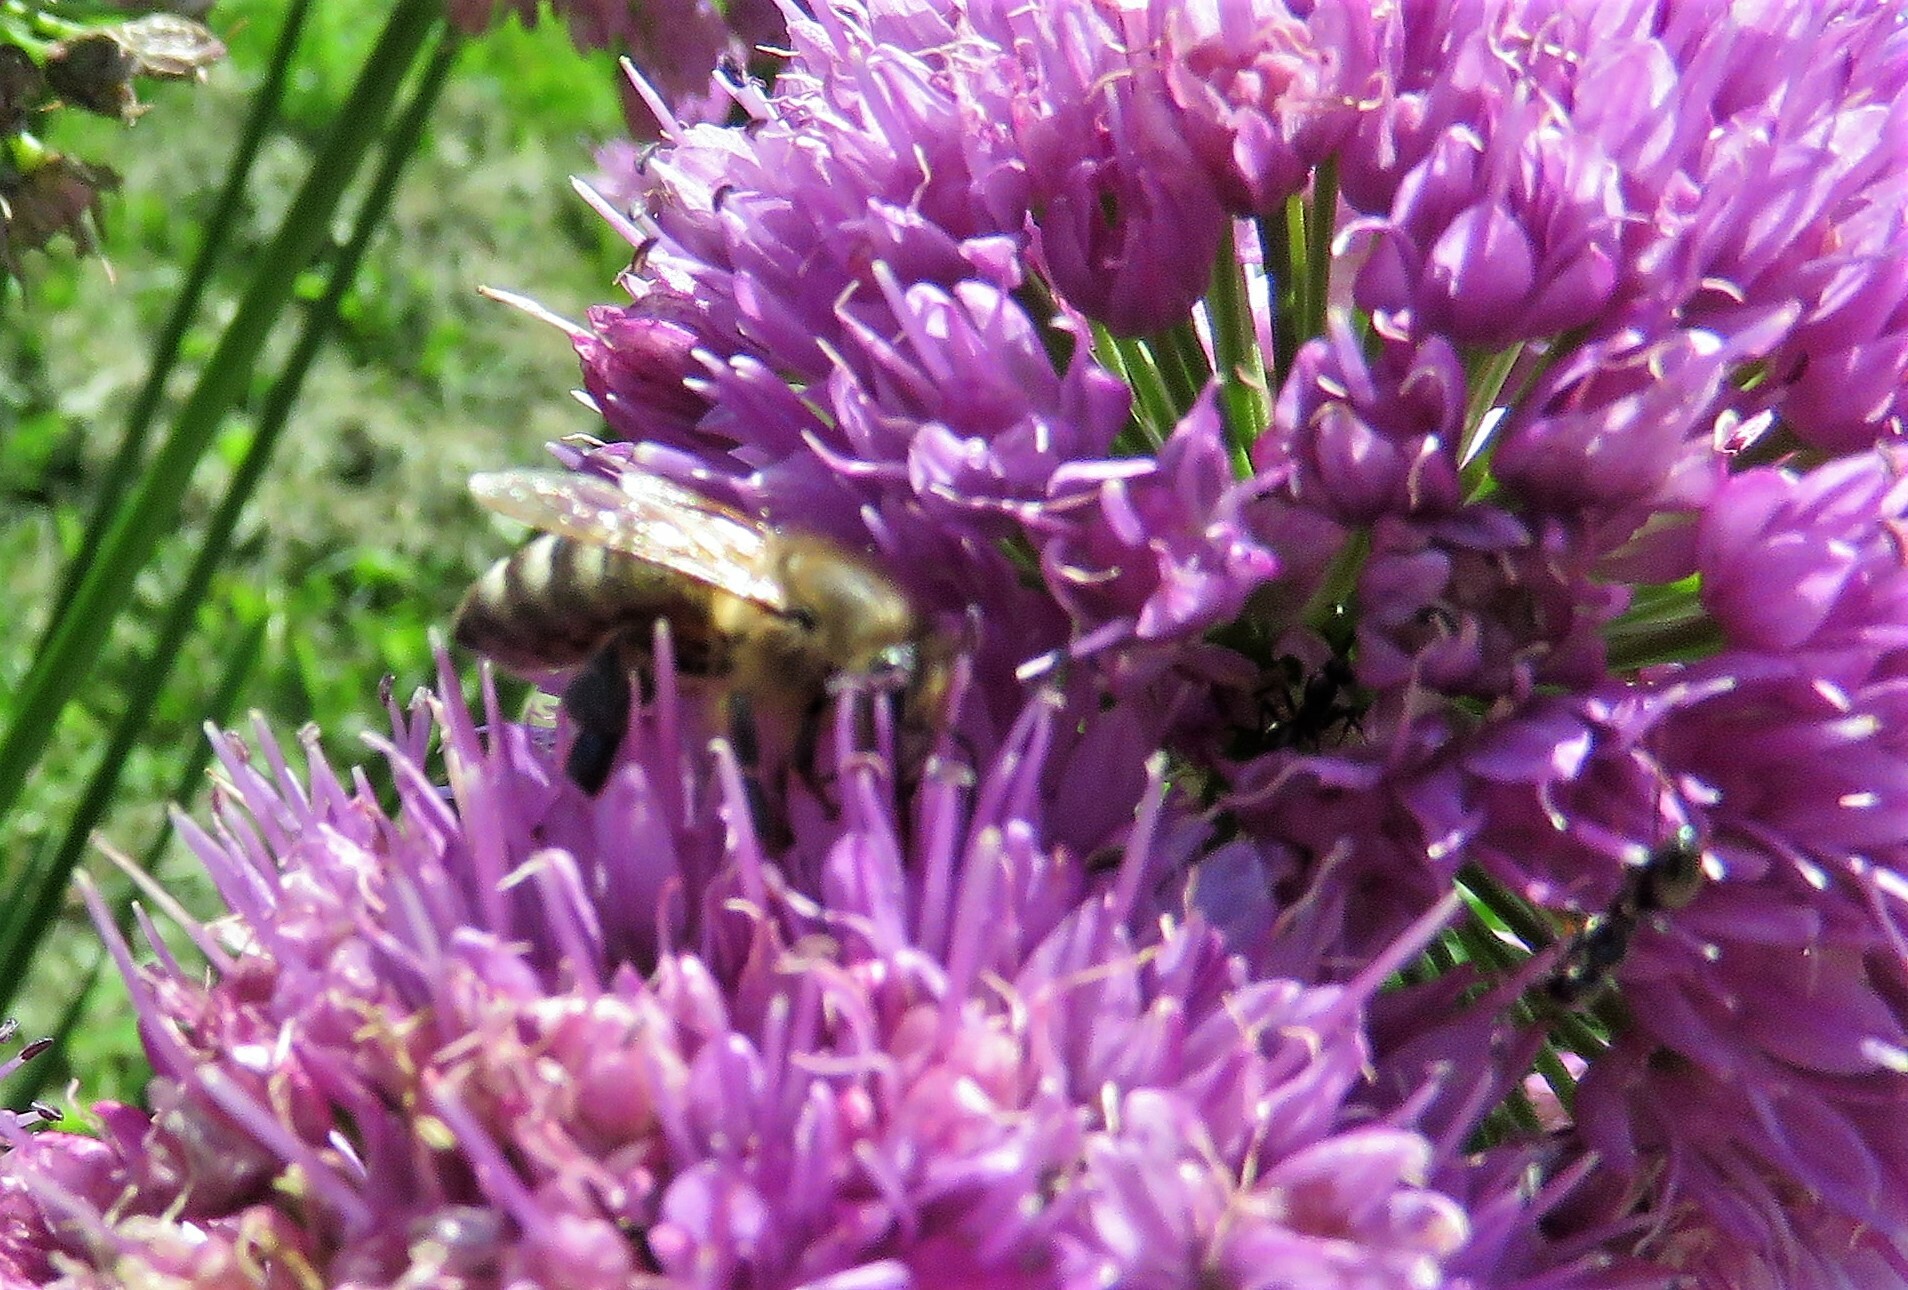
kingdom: Animalia
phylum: Arthropoda
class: Insecta
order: Hymenoptera
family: Apidae
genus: Apis
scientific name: Apis mellifera
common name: Honey bee
